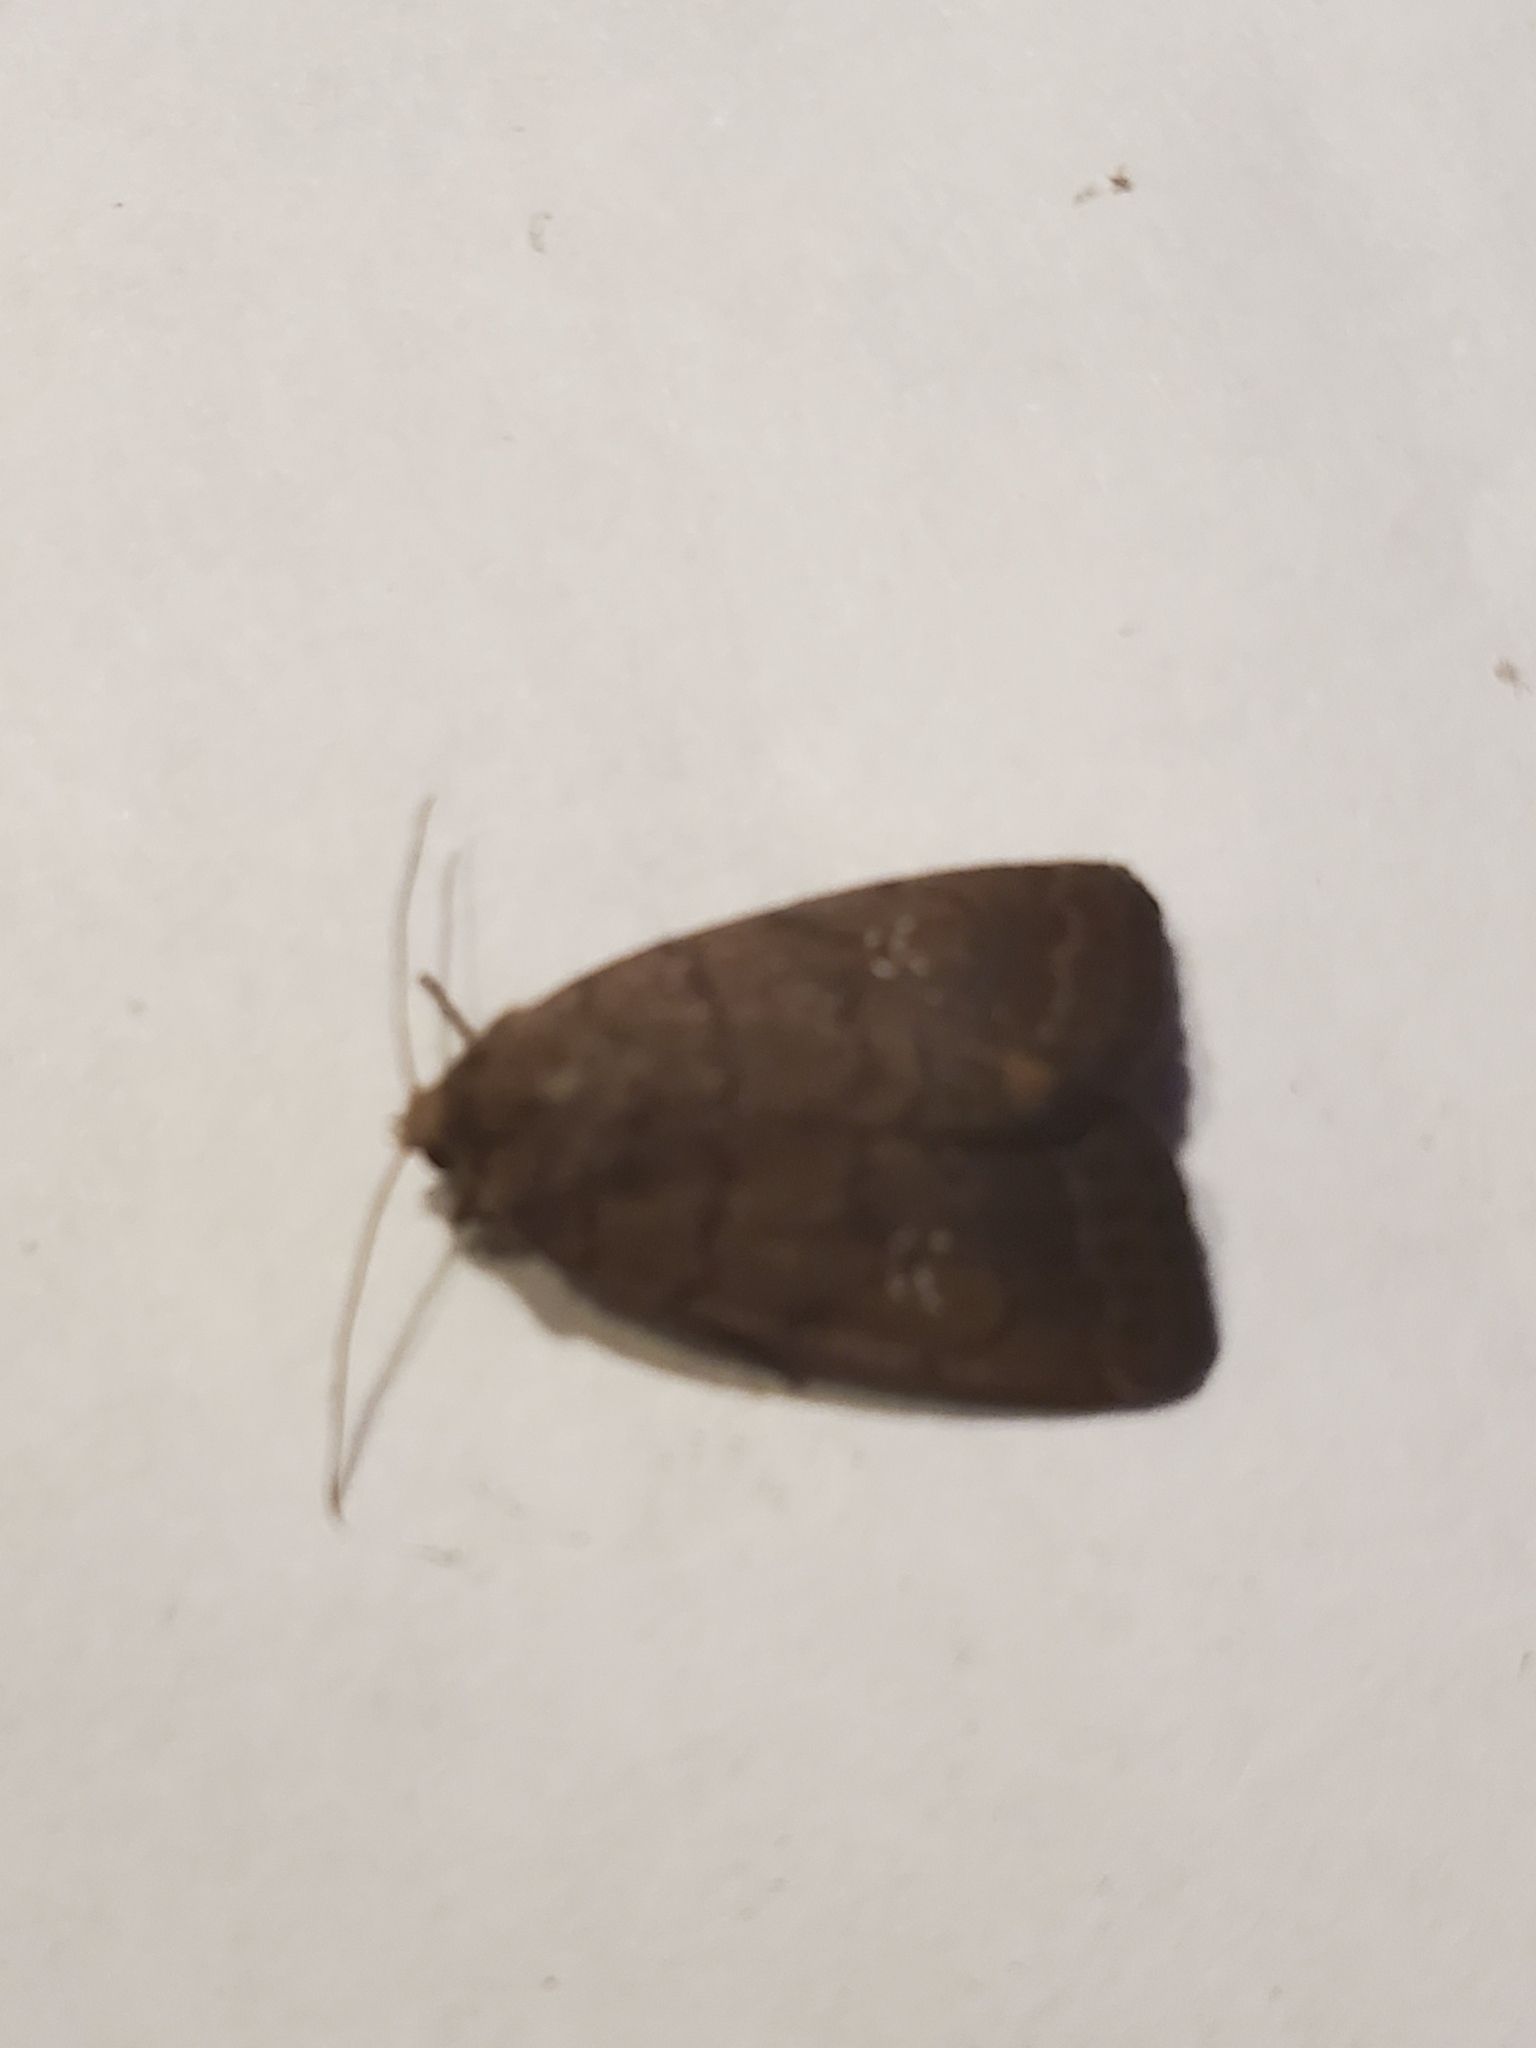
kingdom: Animalia
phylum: Arthropoda
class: Insecta
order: Lepidoptera
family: Noctuidae
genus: Athetis
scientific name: Athetis tarda
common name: Slowpoke moth
